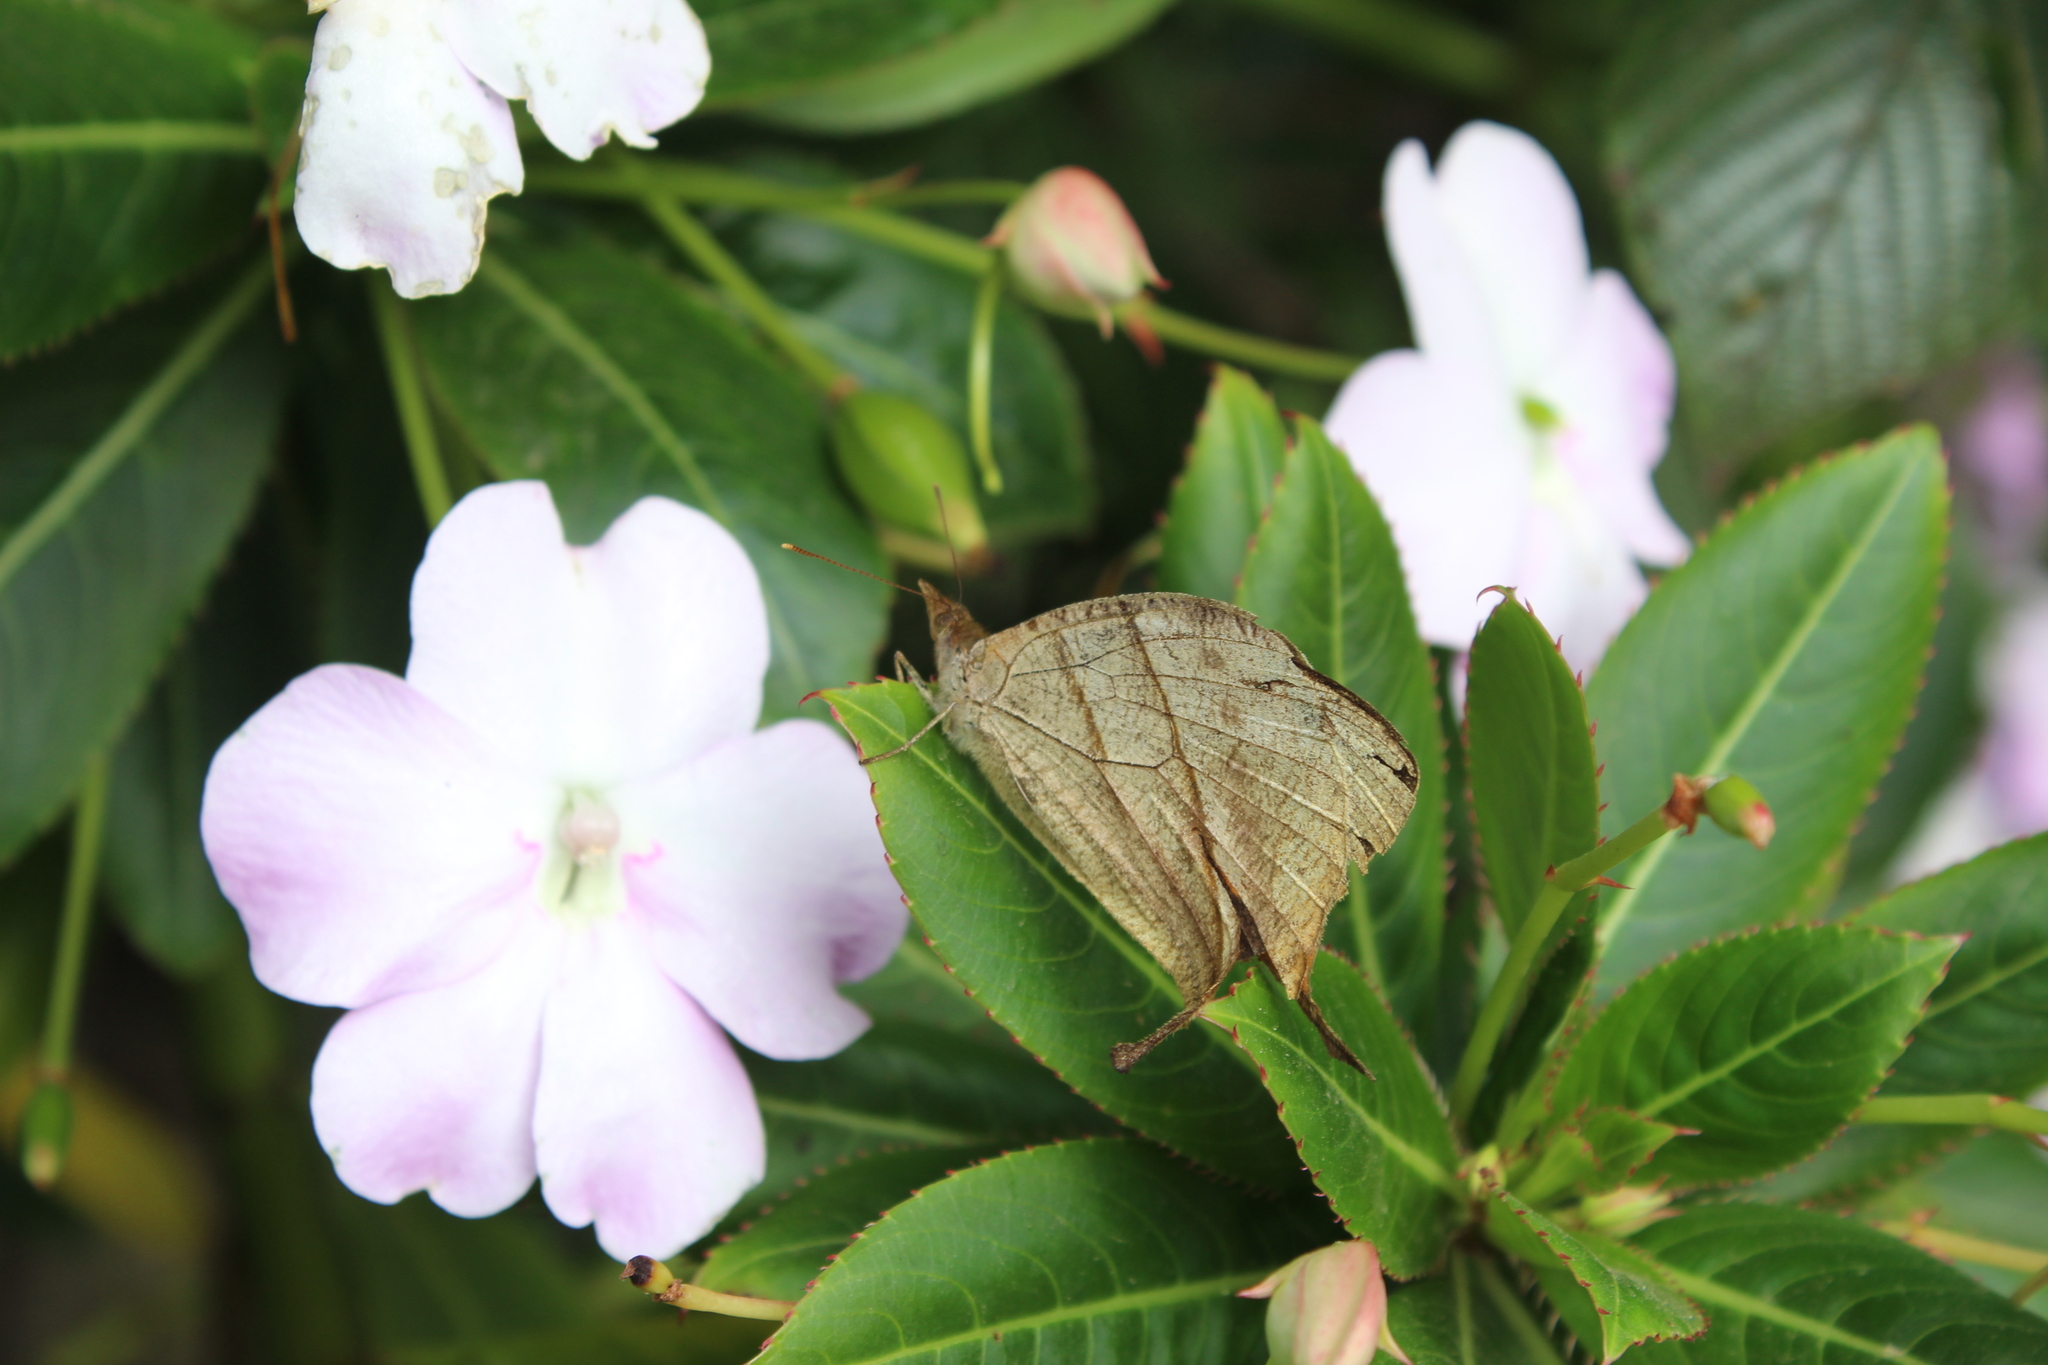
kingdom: Animalia
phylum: Arthropoda
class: Insecta
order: Lepidoptera
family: Nymphalidae
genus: Corades
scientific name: Corades chelonis
